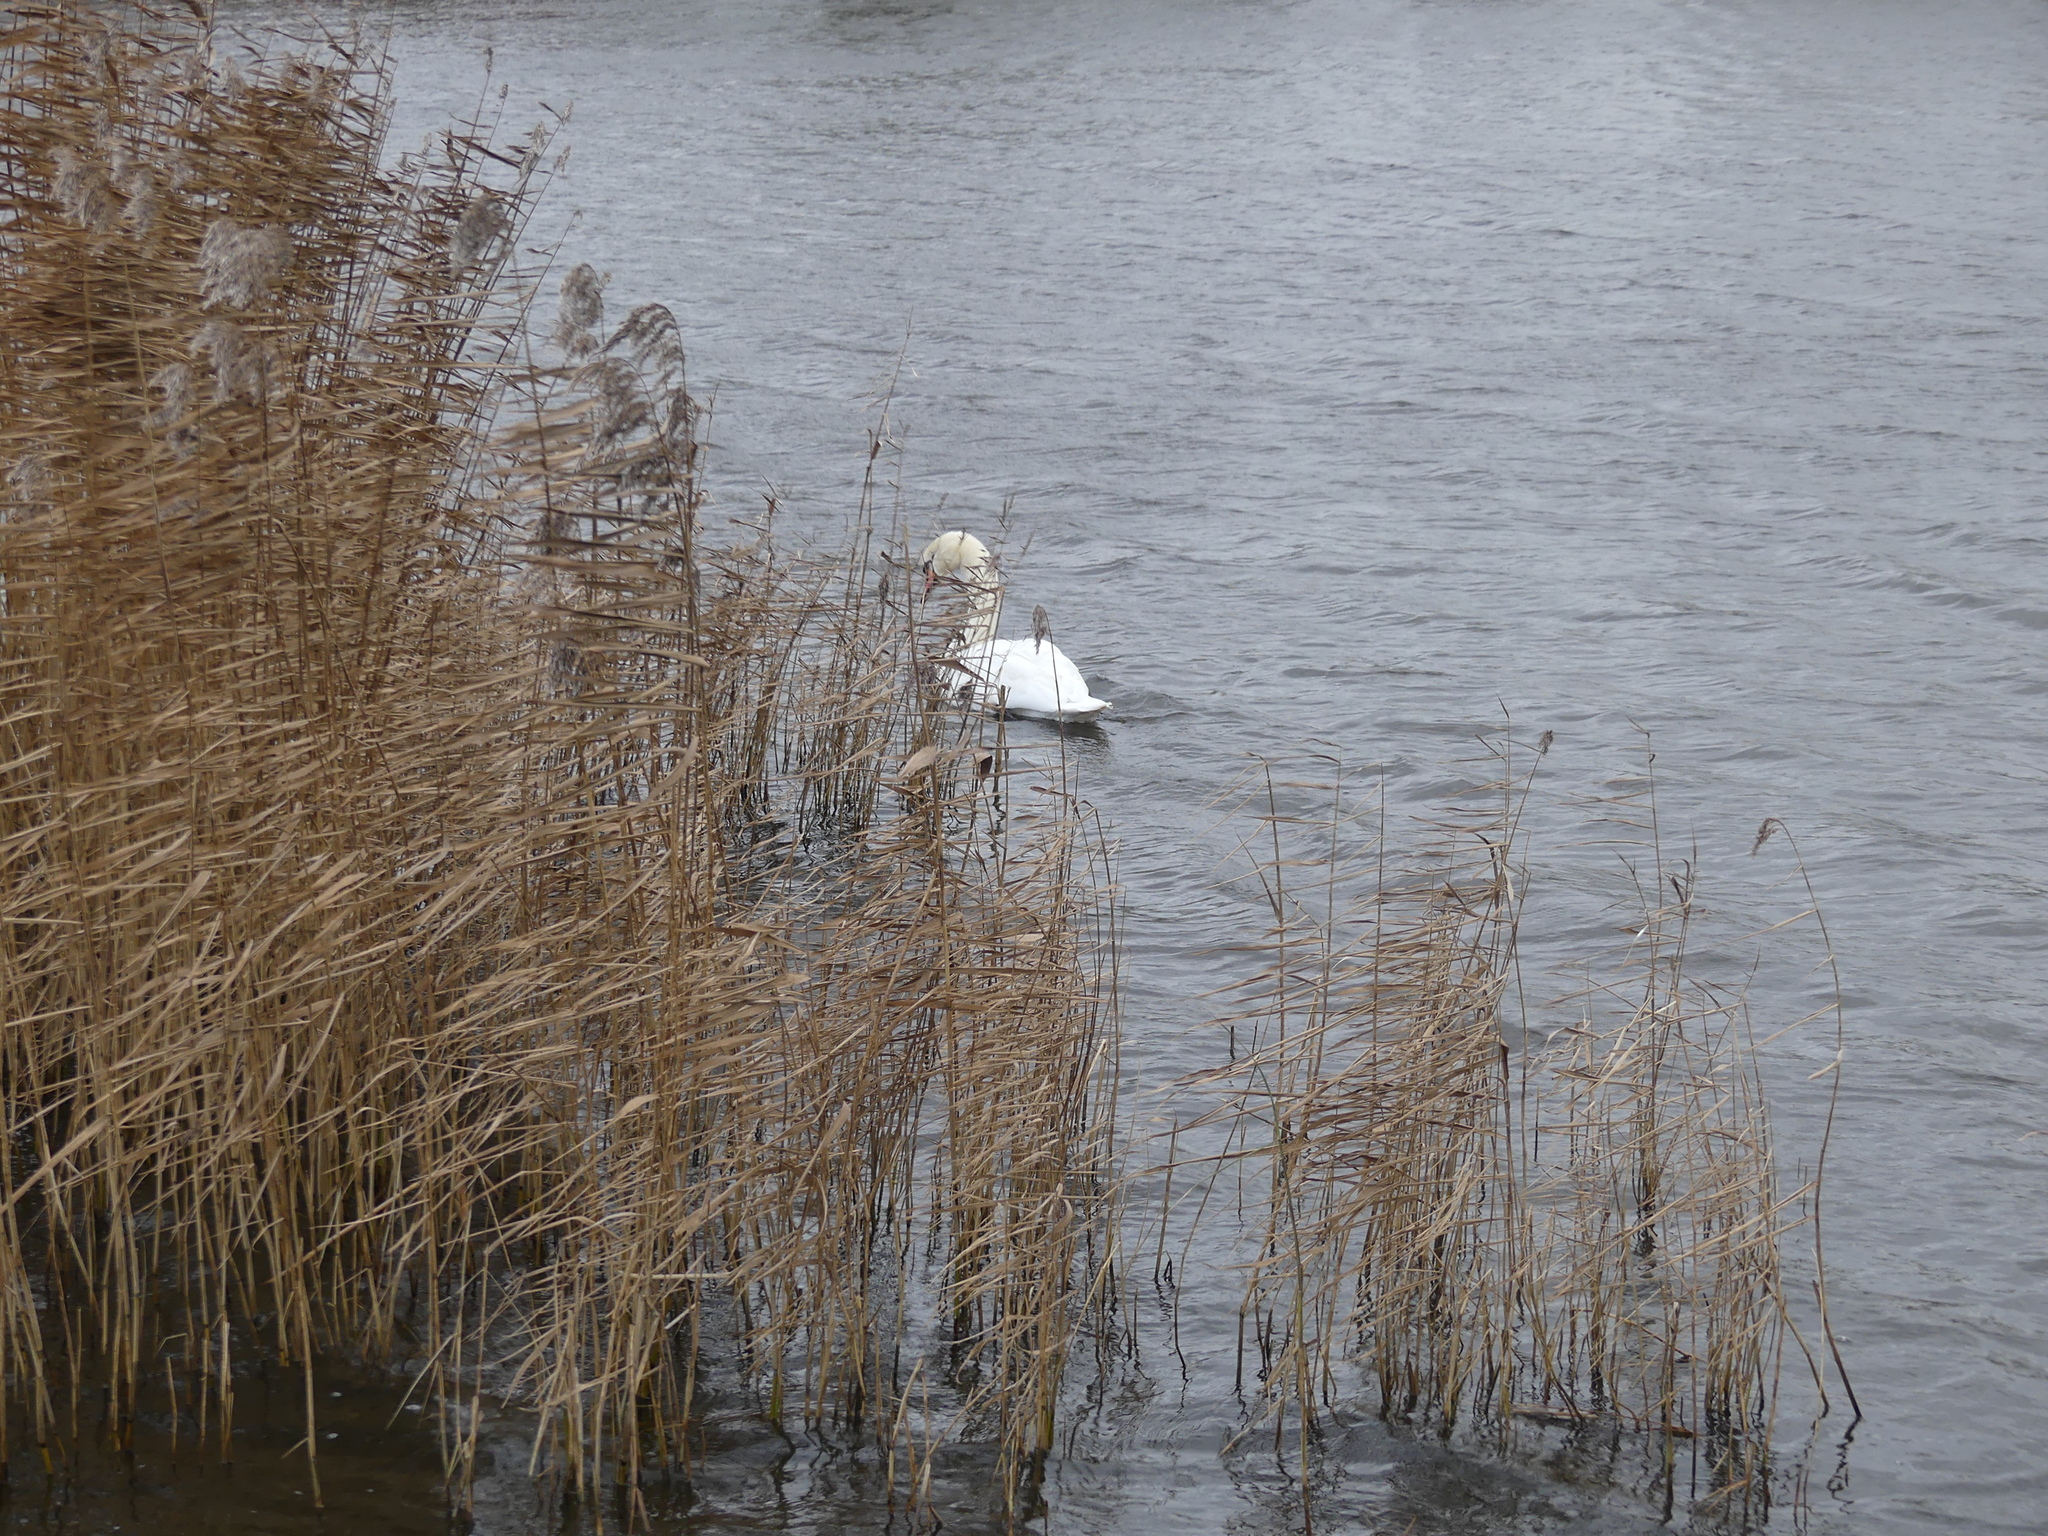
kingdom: Animalia
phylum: Chordata
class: Aves
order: Anseriformes
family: Anatidae
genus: Cygnus
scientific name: Cygnus olor
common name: Mute swan
